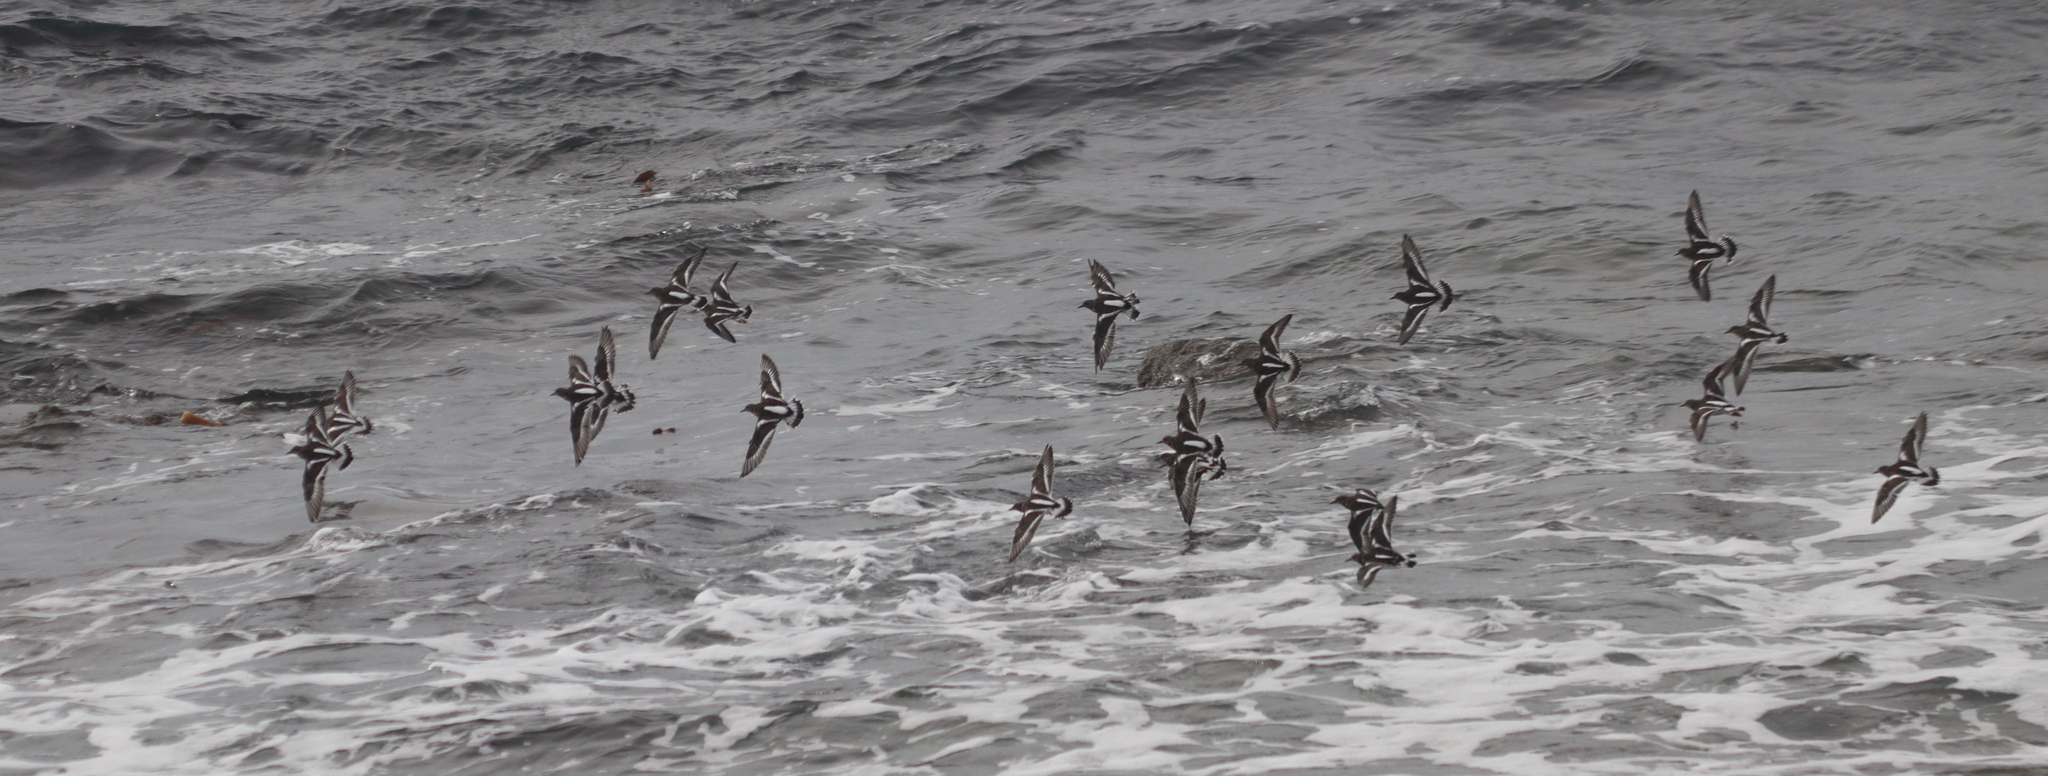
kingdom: Animalia
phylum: Chordata
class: Aves
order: Charadriiformes
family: Scolopacidae
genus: Arenaria
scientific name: Arenaria interpres
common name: Ruddy turnstone
